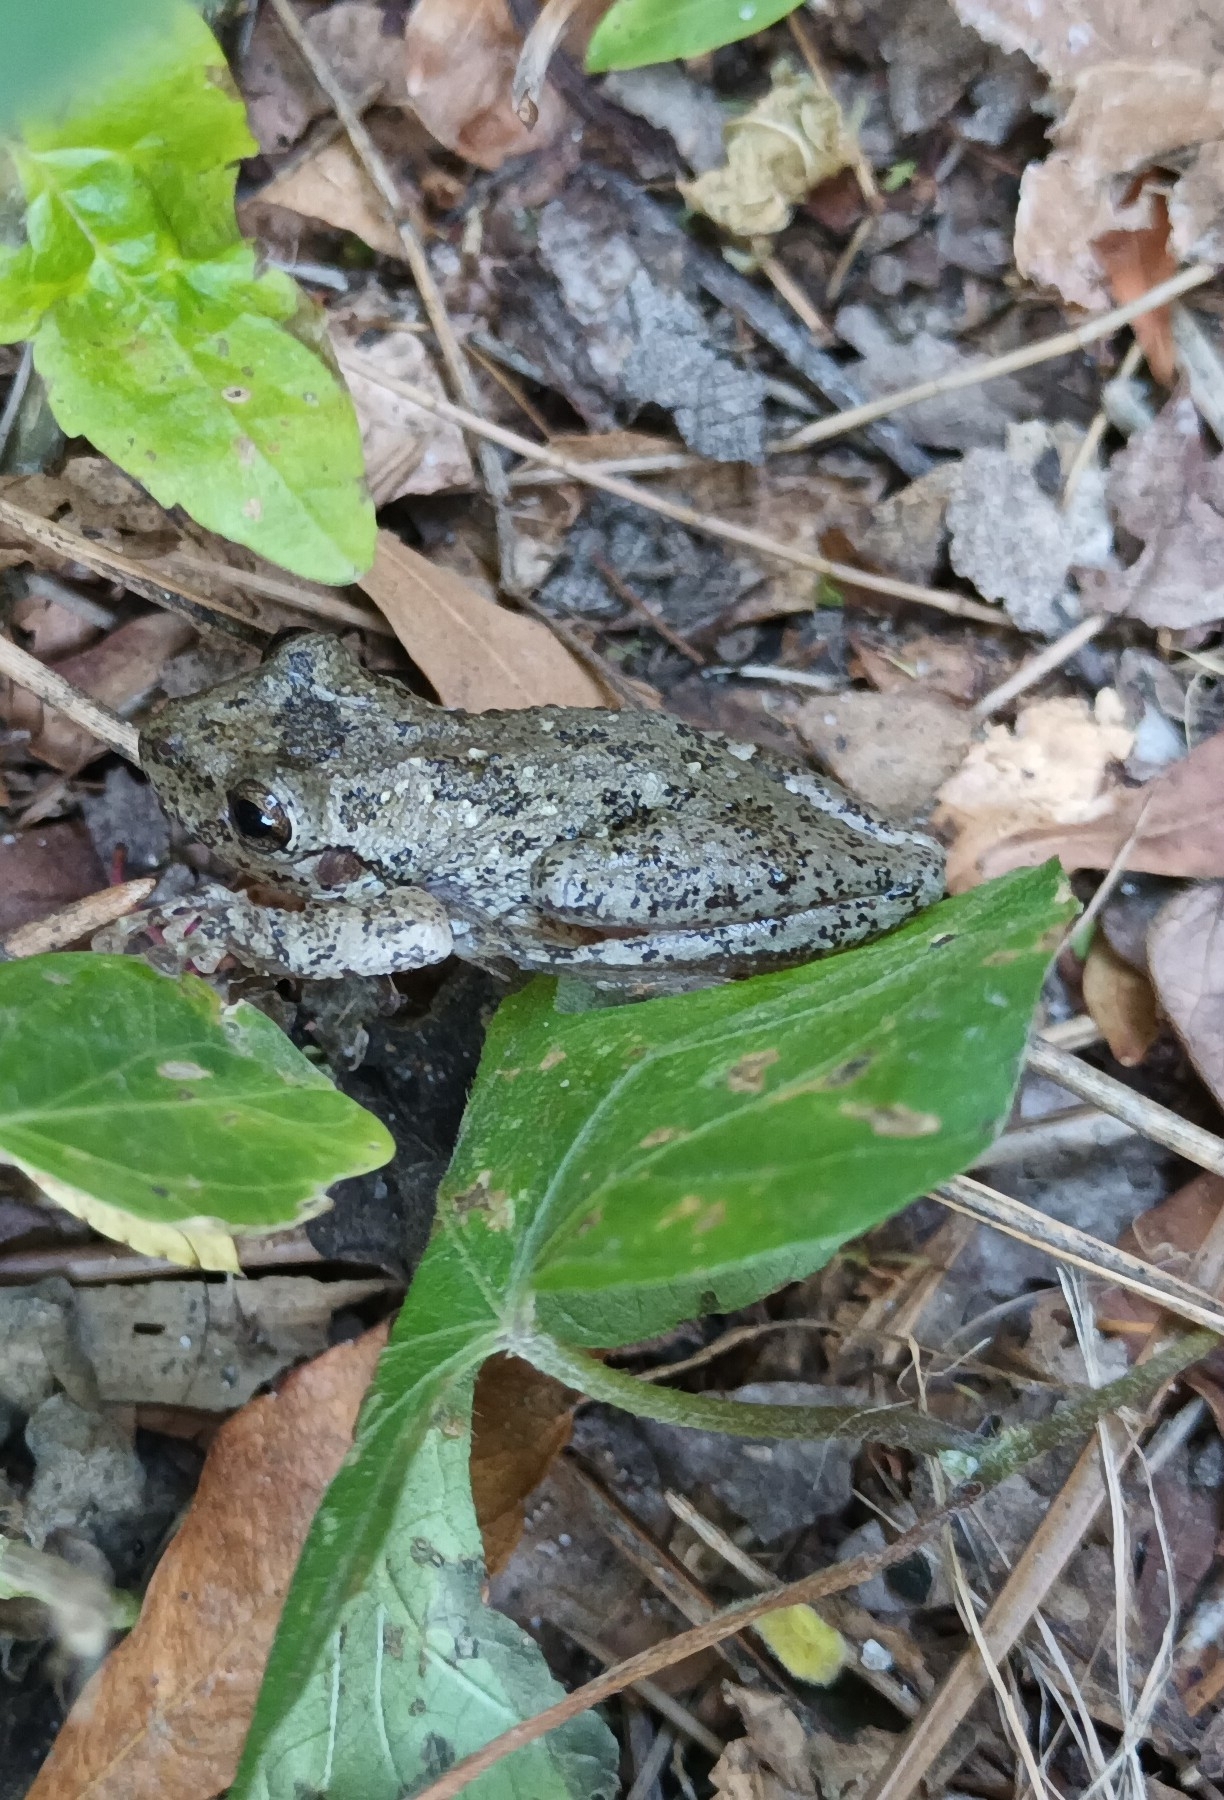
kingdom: Animalia
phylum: Chordata
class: Amphibia
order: Anura
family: Hylidae
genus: Scinax
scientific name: Scinax granulatus
